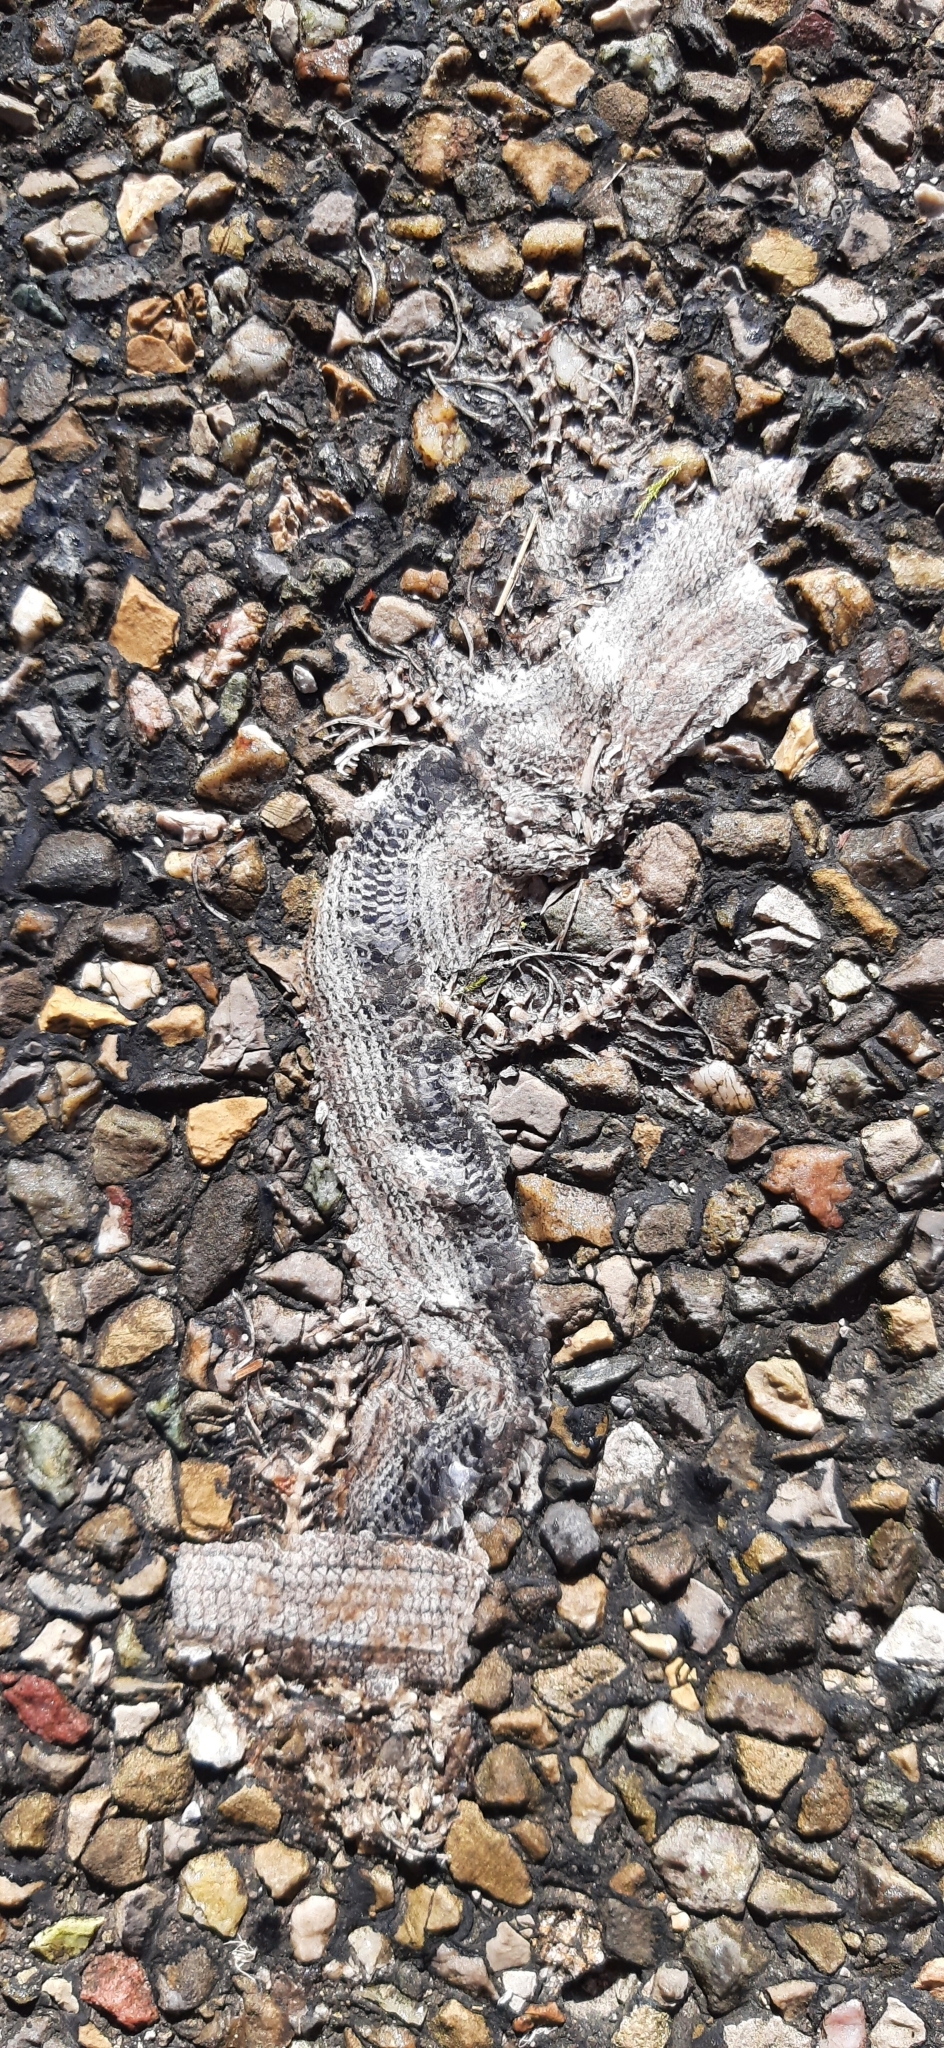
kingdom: Animalia
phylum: Chordata
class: Squamata
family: Anguidae
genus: Anguis
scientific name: Anguis fragilis
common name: Slow worm
